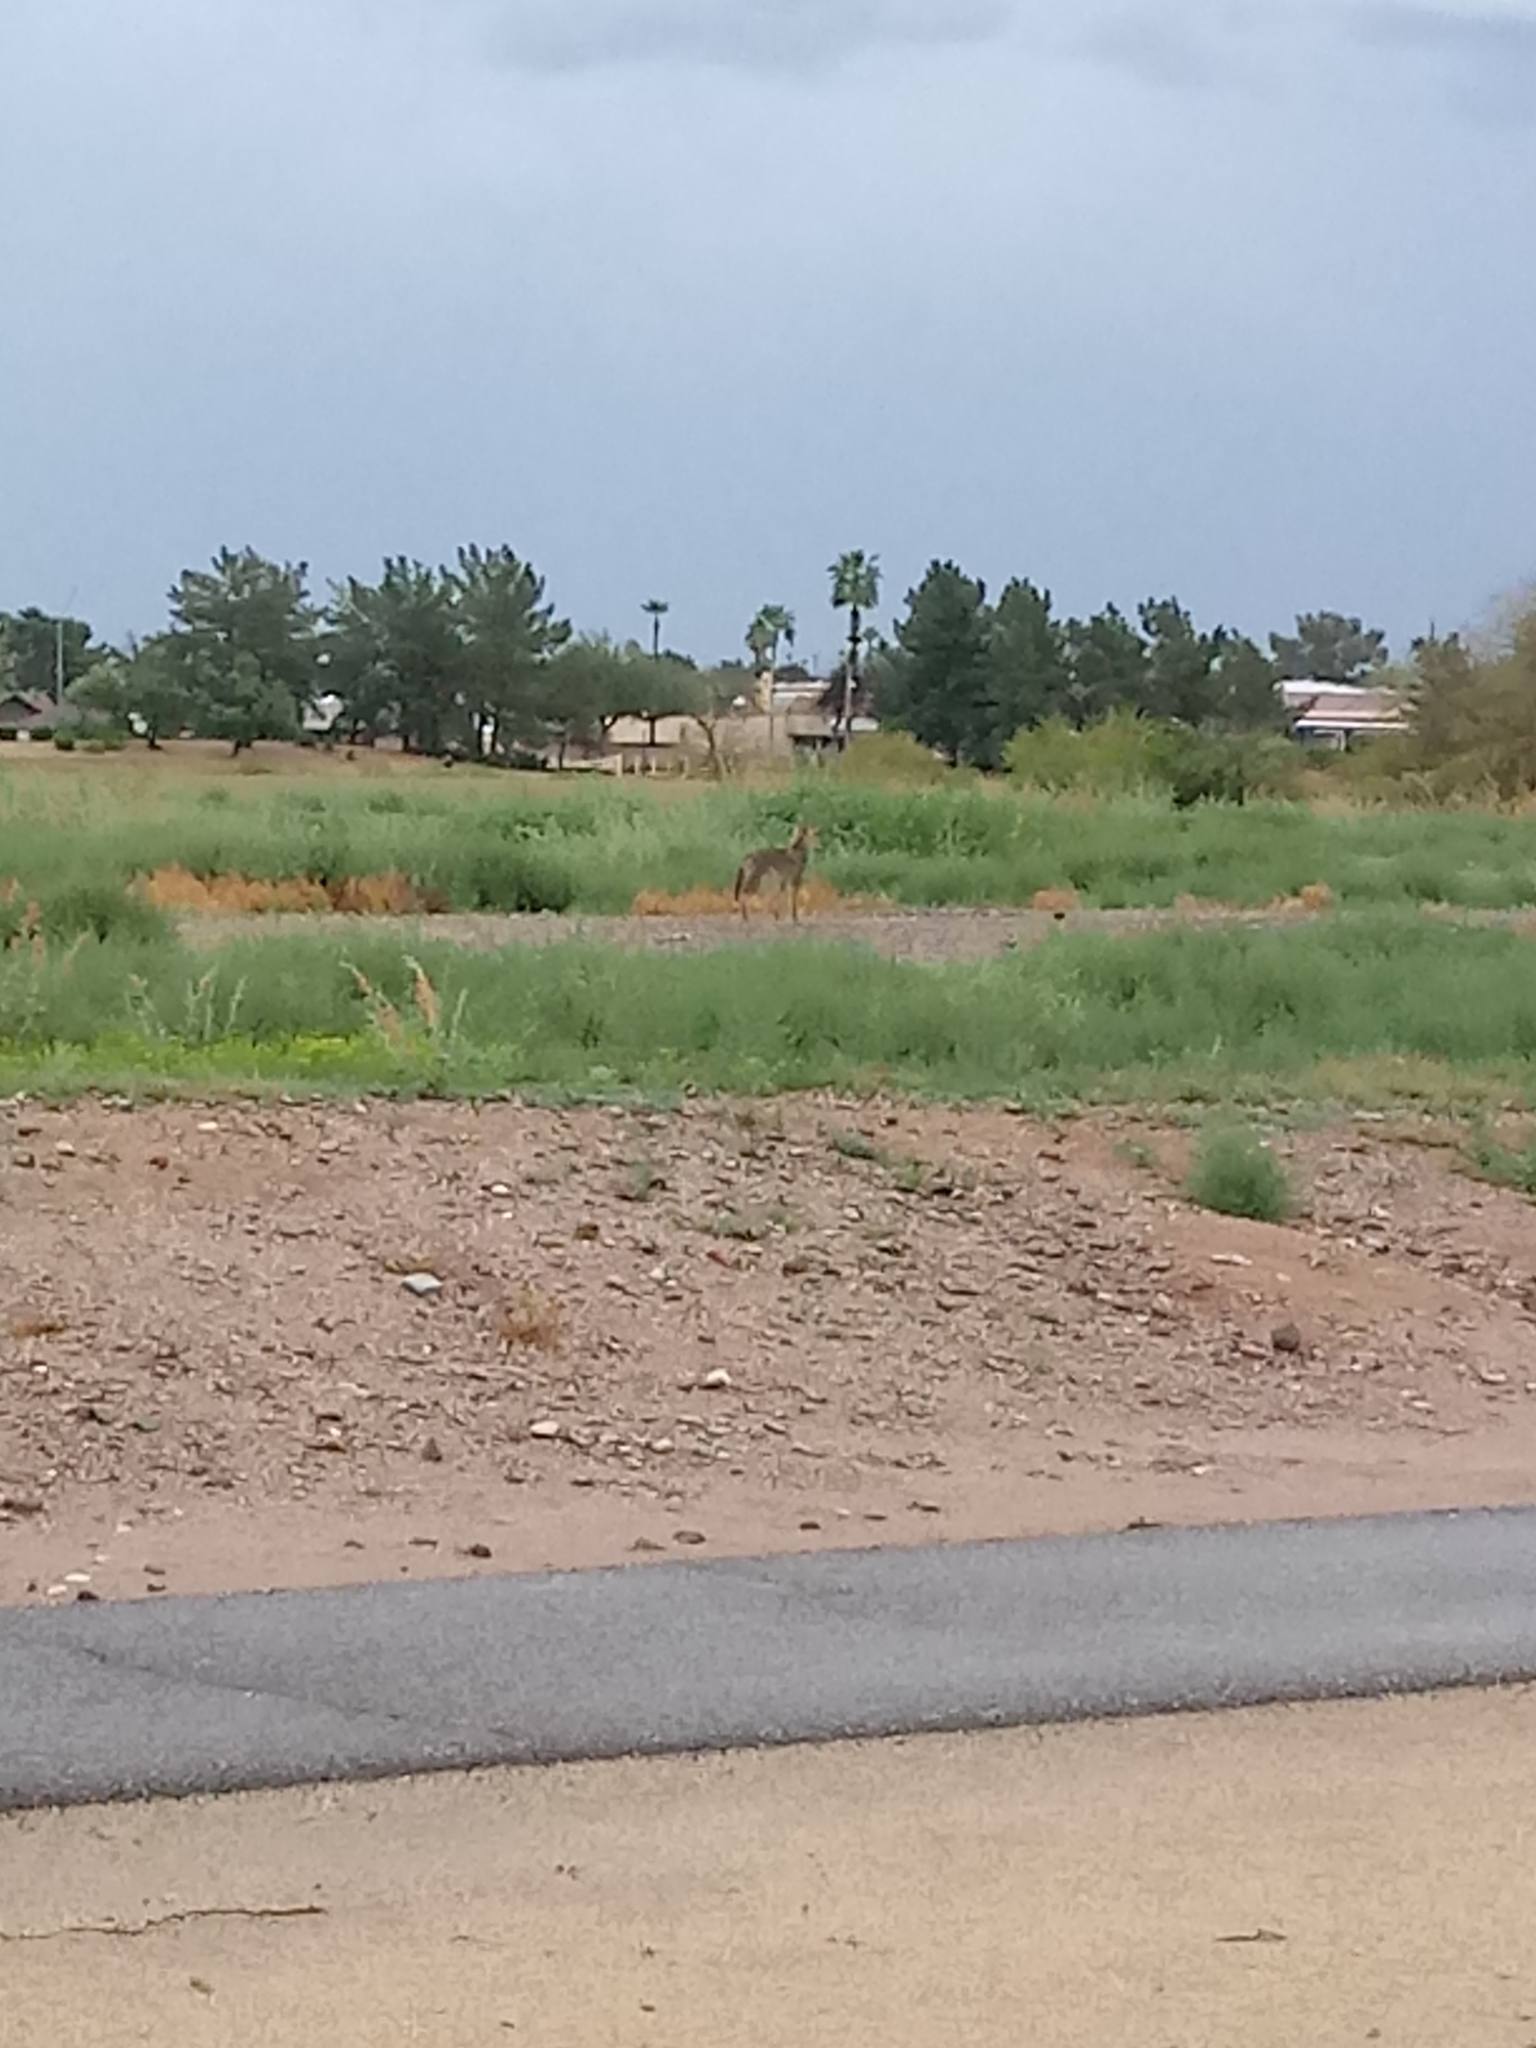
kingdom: Animalia
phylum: Chordata
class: Mammalia
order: Carnivora
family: Canidae
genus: Canis
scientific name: Canis latrans
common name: Coyote
